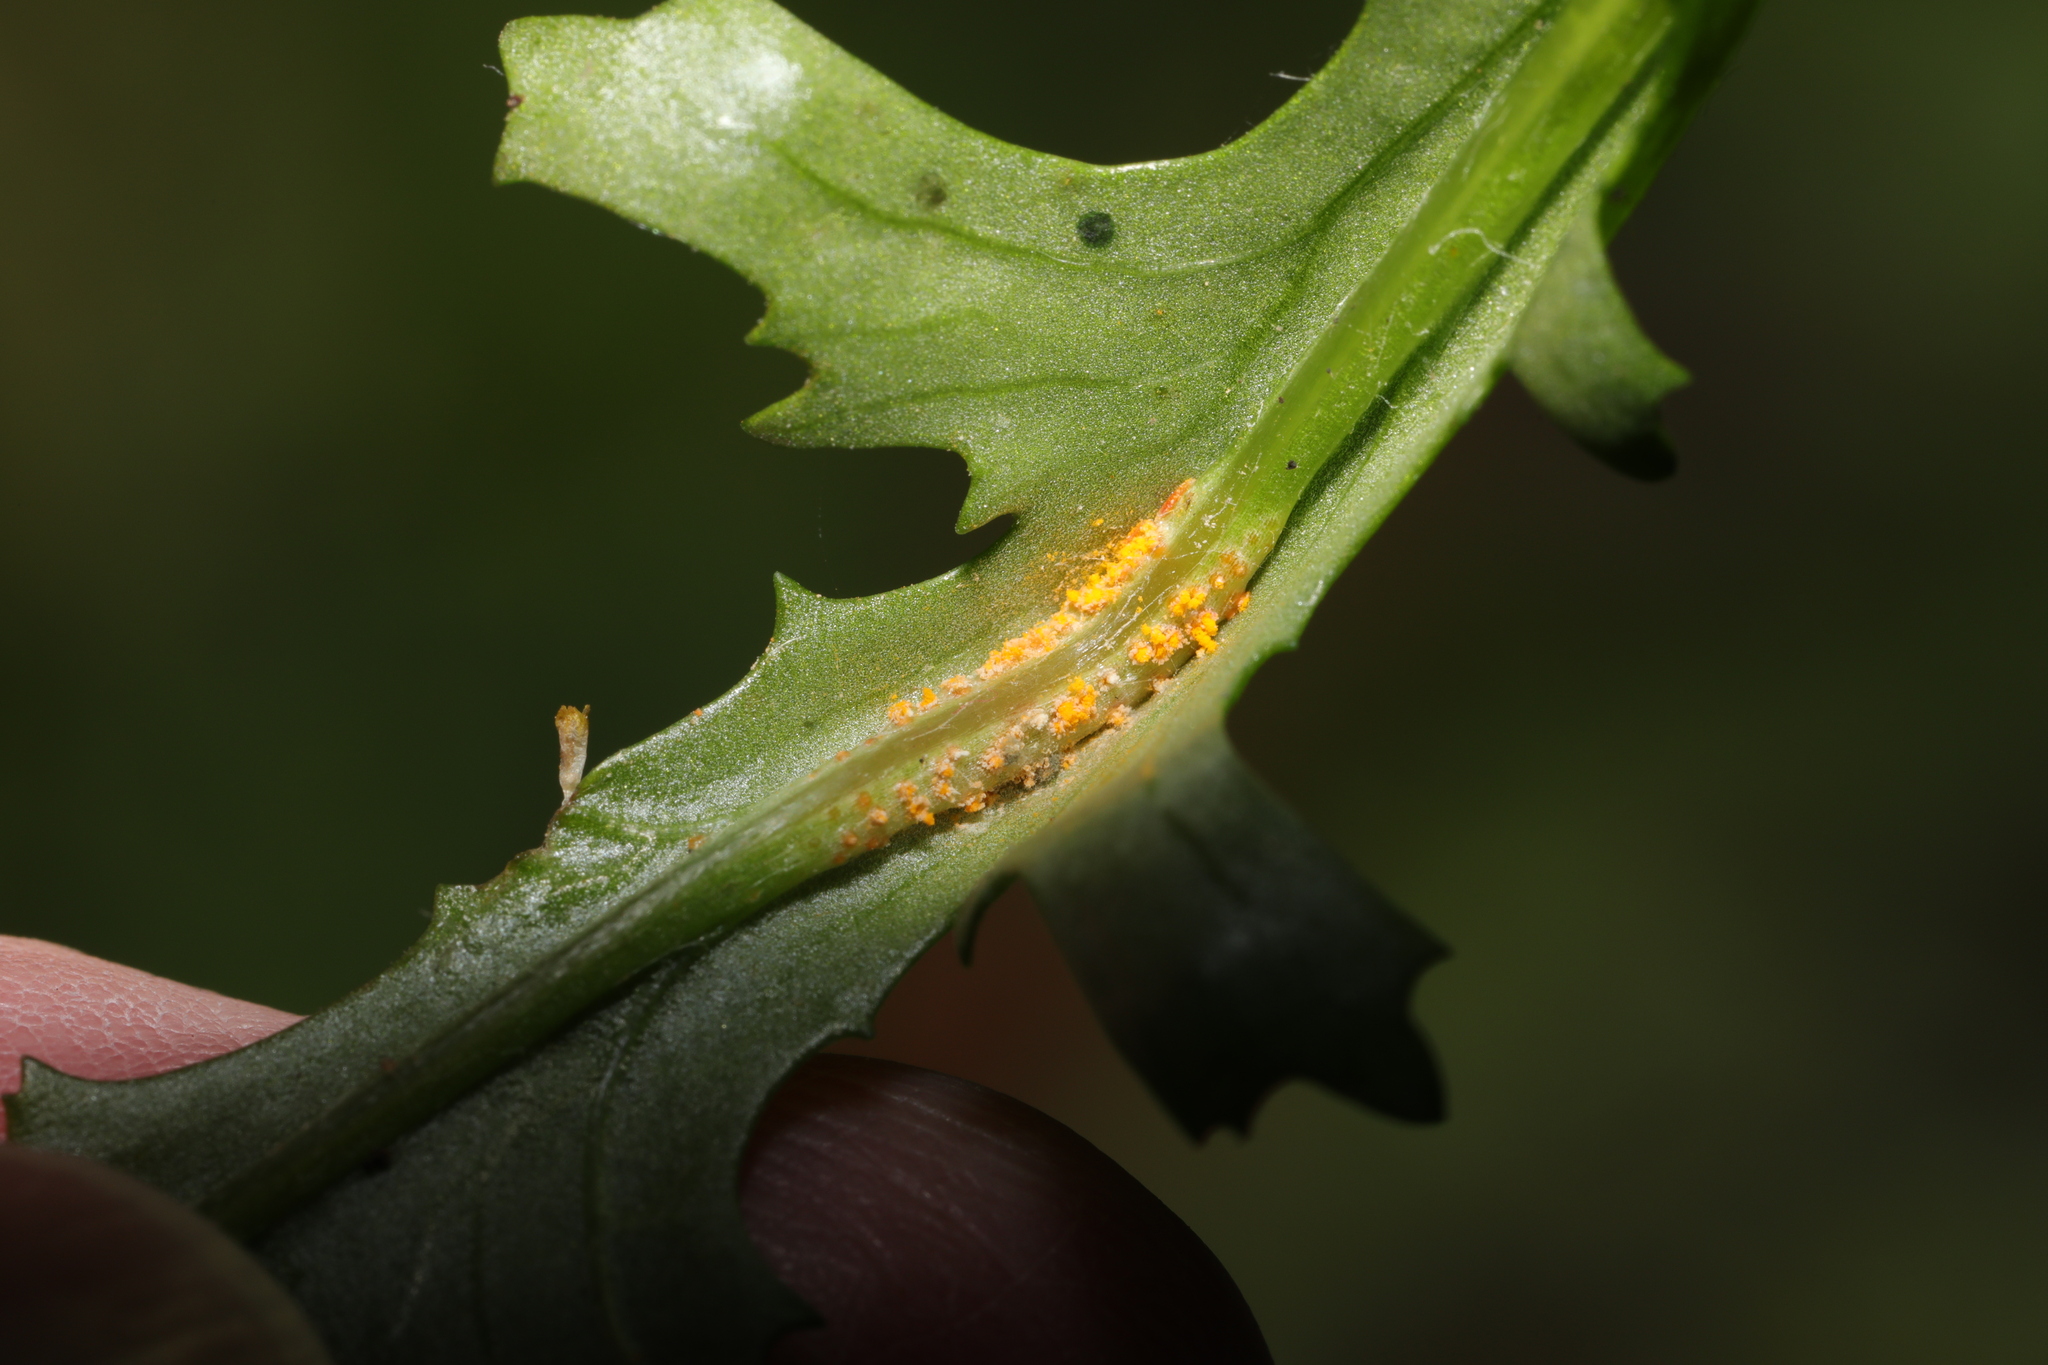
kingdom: Fungi
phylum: Basidiomycota
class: Pucciniomycetes
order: Pucciniales
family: Pucciniaceae
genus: Puccinia
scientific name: Puccinia lagenophorae
